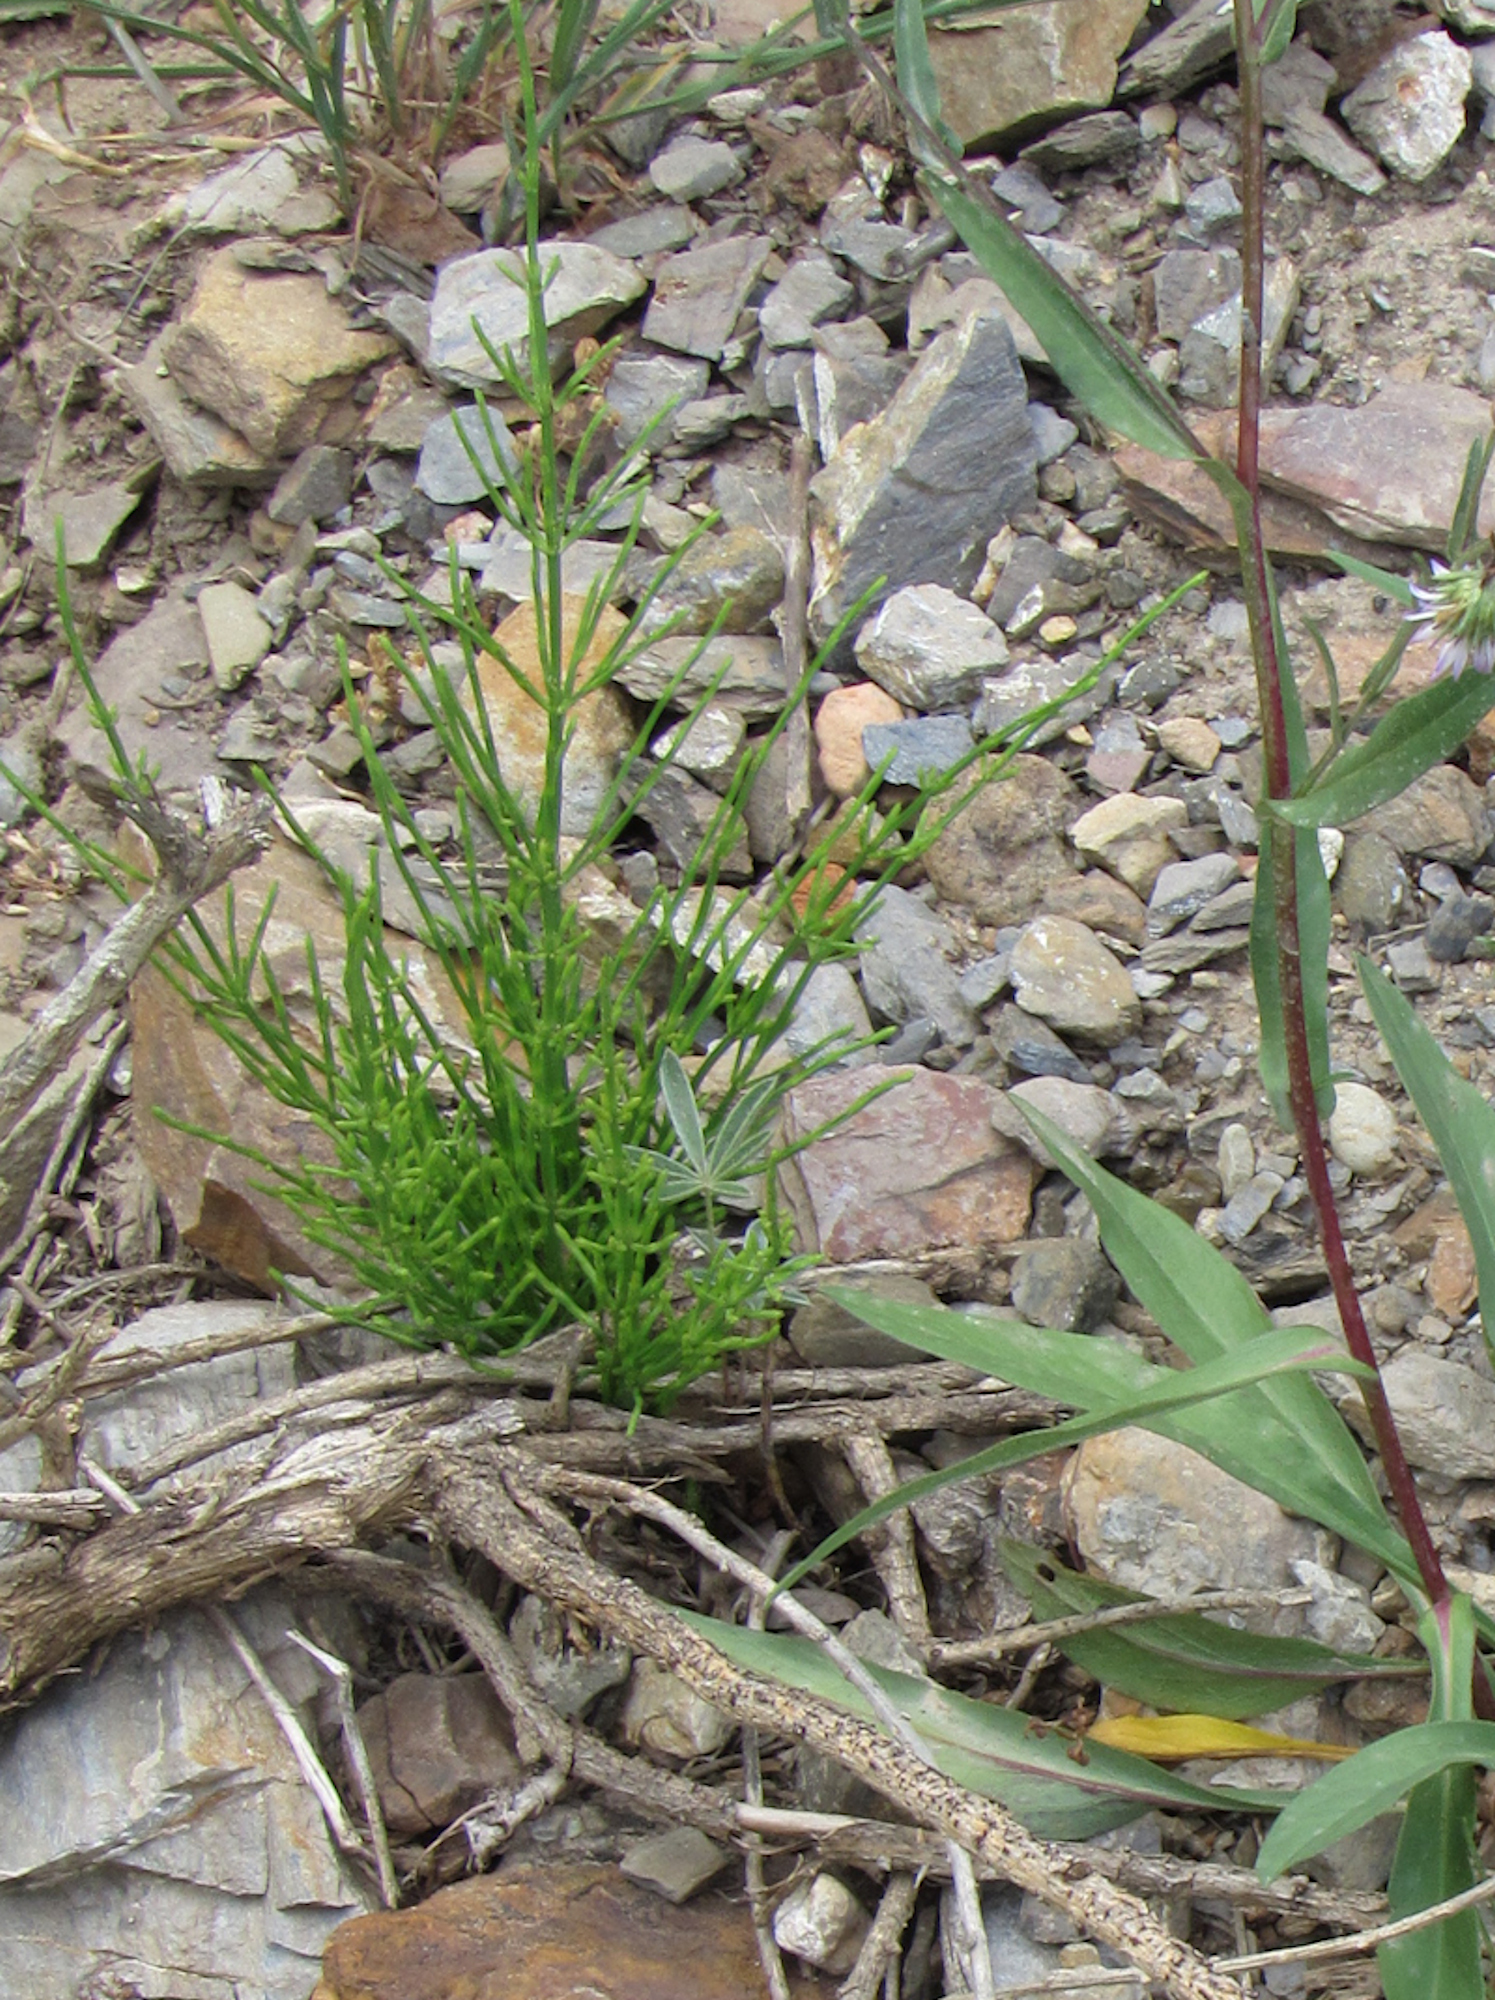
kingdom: Plantae
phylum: Tracheophyta
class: Polypodiopsida
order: Equisetales
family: Equisetaceae
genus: Equisetum
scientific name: Equisetum arvense
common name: Field horsetail
